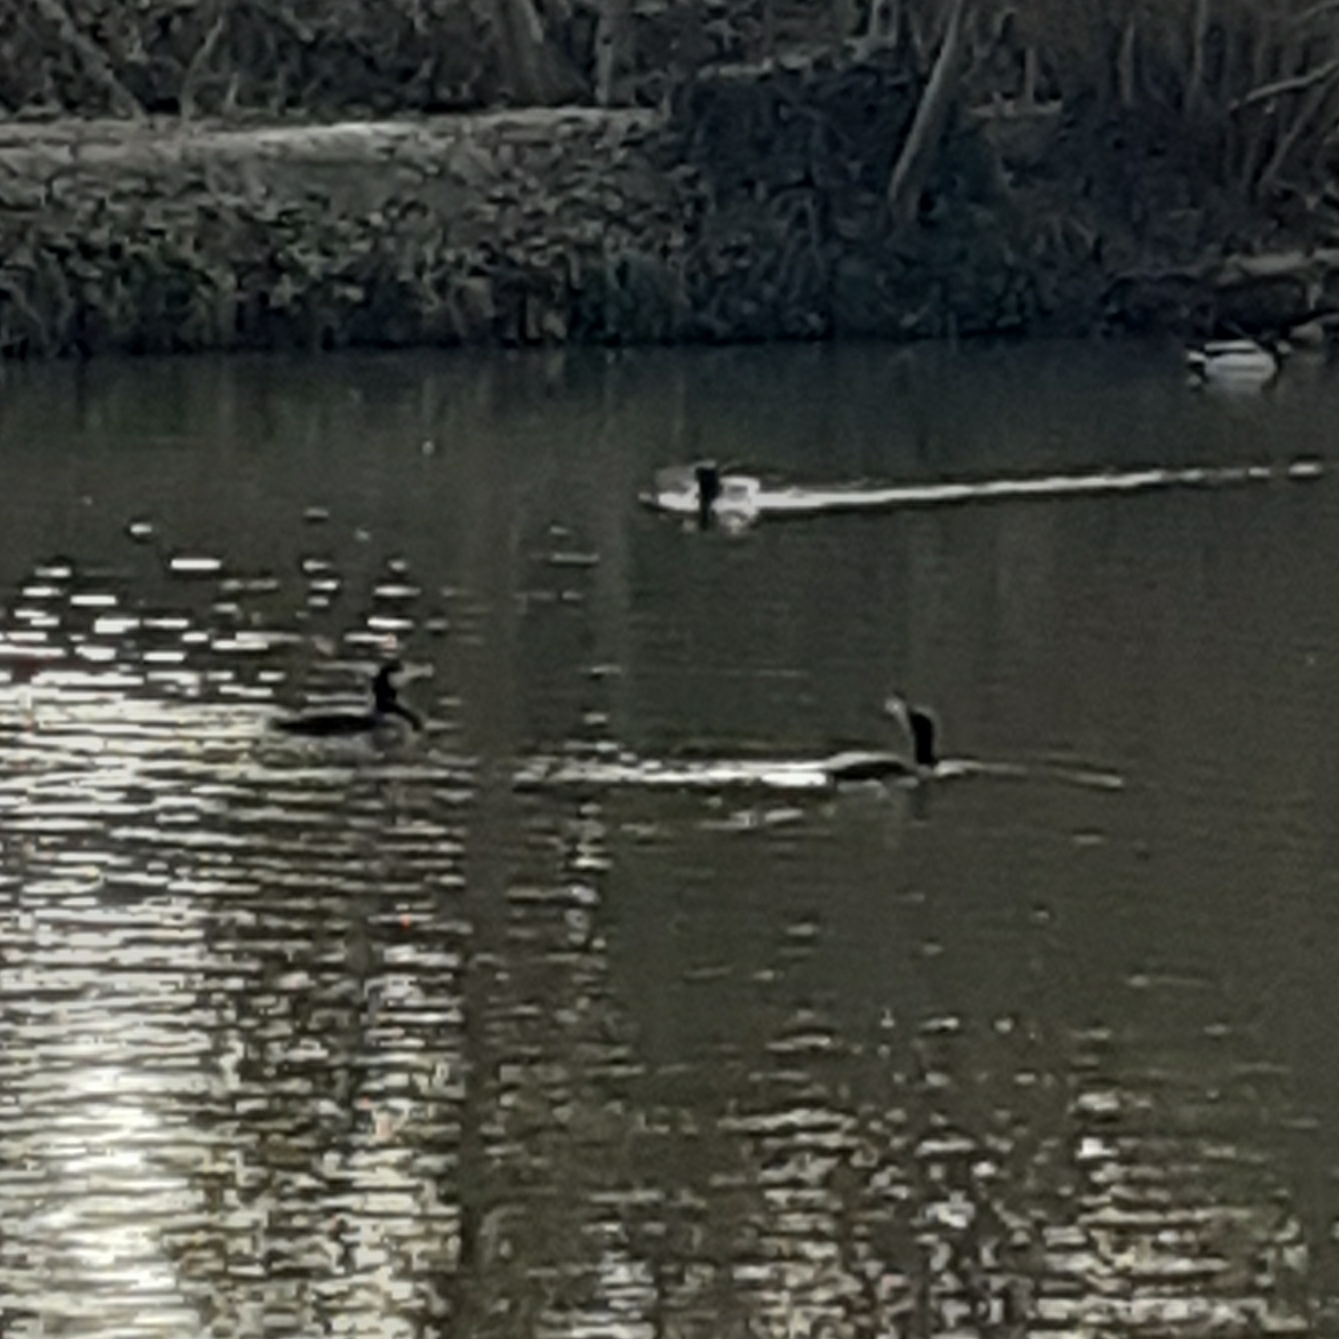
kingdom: Animalia
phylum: Chordata
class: Aves
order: Suliformes
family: Phalacrocoracidae
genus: Phalacrocorax
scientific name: Phalacrocorax carbo
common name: Great cormorant
